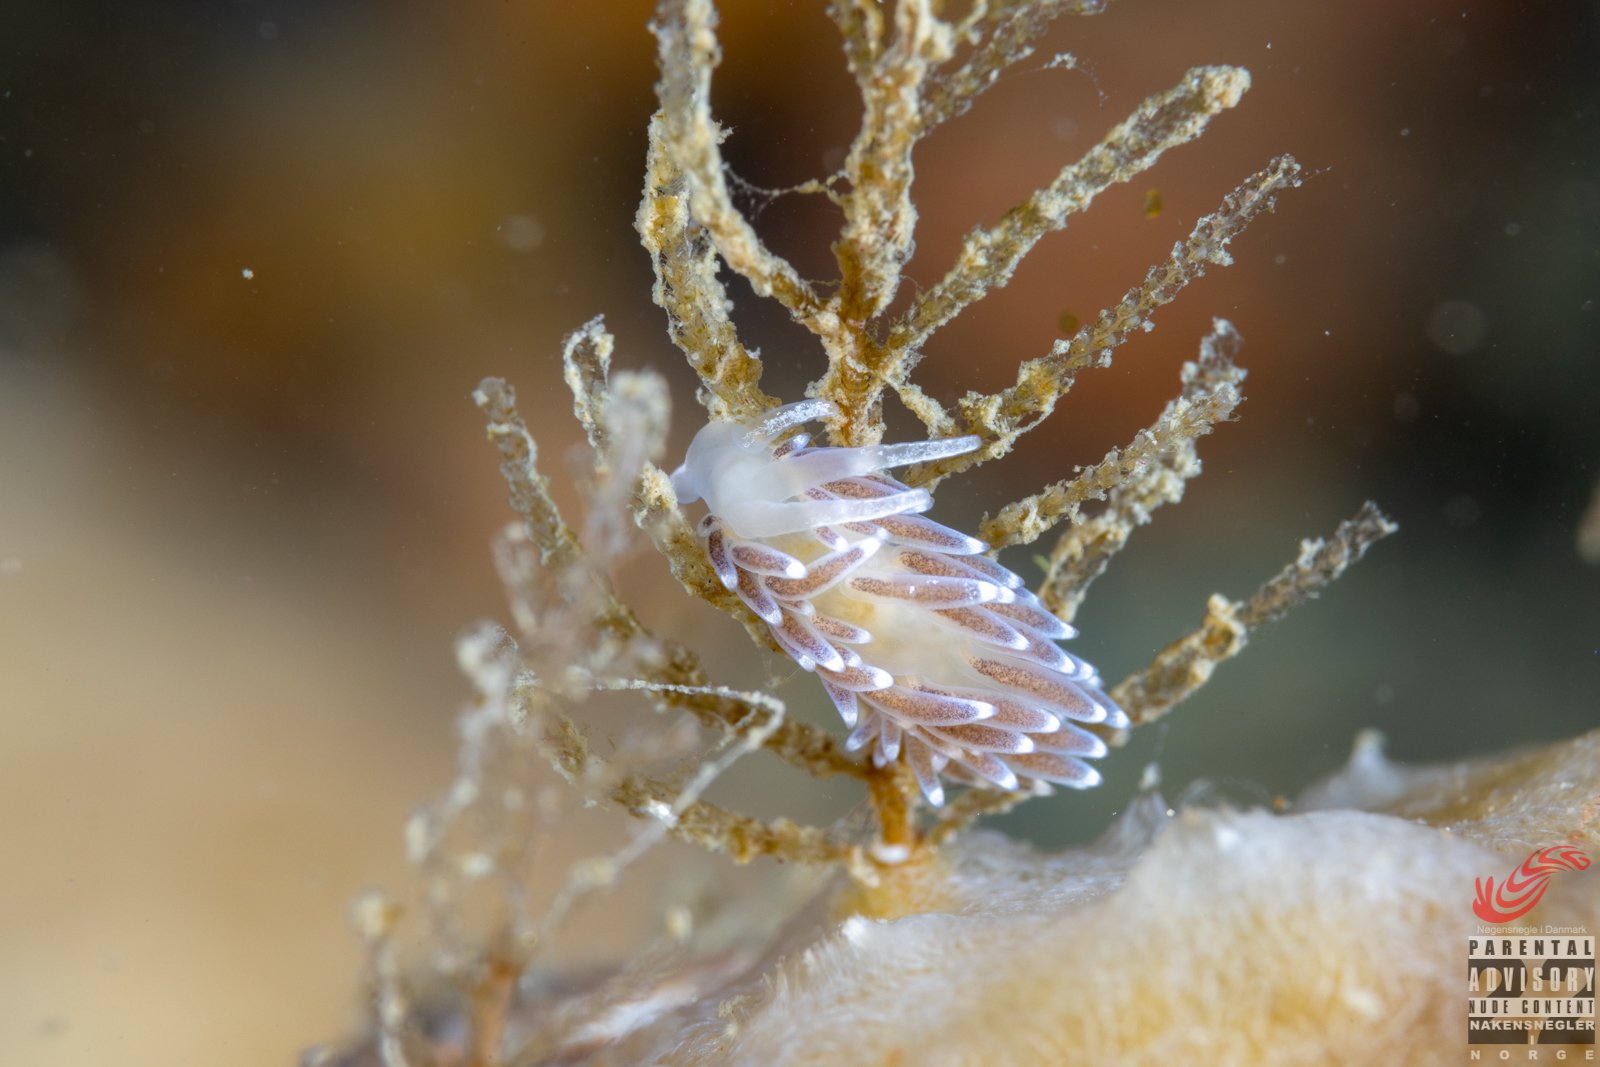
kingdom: Animalia
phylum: Mollusca
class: Gastropoda
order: Nudibranchia
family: Cuthonellidae
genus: Cuthonella
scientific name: Cuthonella concinna
